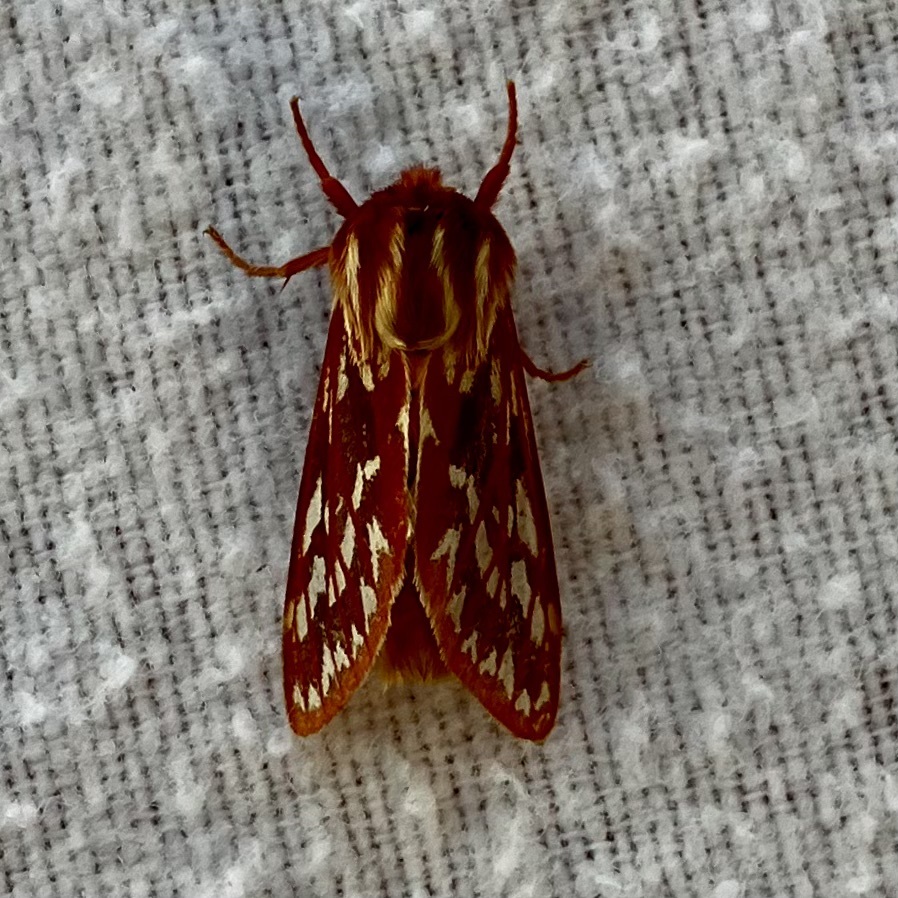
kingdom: Animalia
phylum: Arthropoda
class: Insecta
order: Lepidoptera
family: Erebidae
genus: Lophocampa
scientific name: Lophocampa roseata
